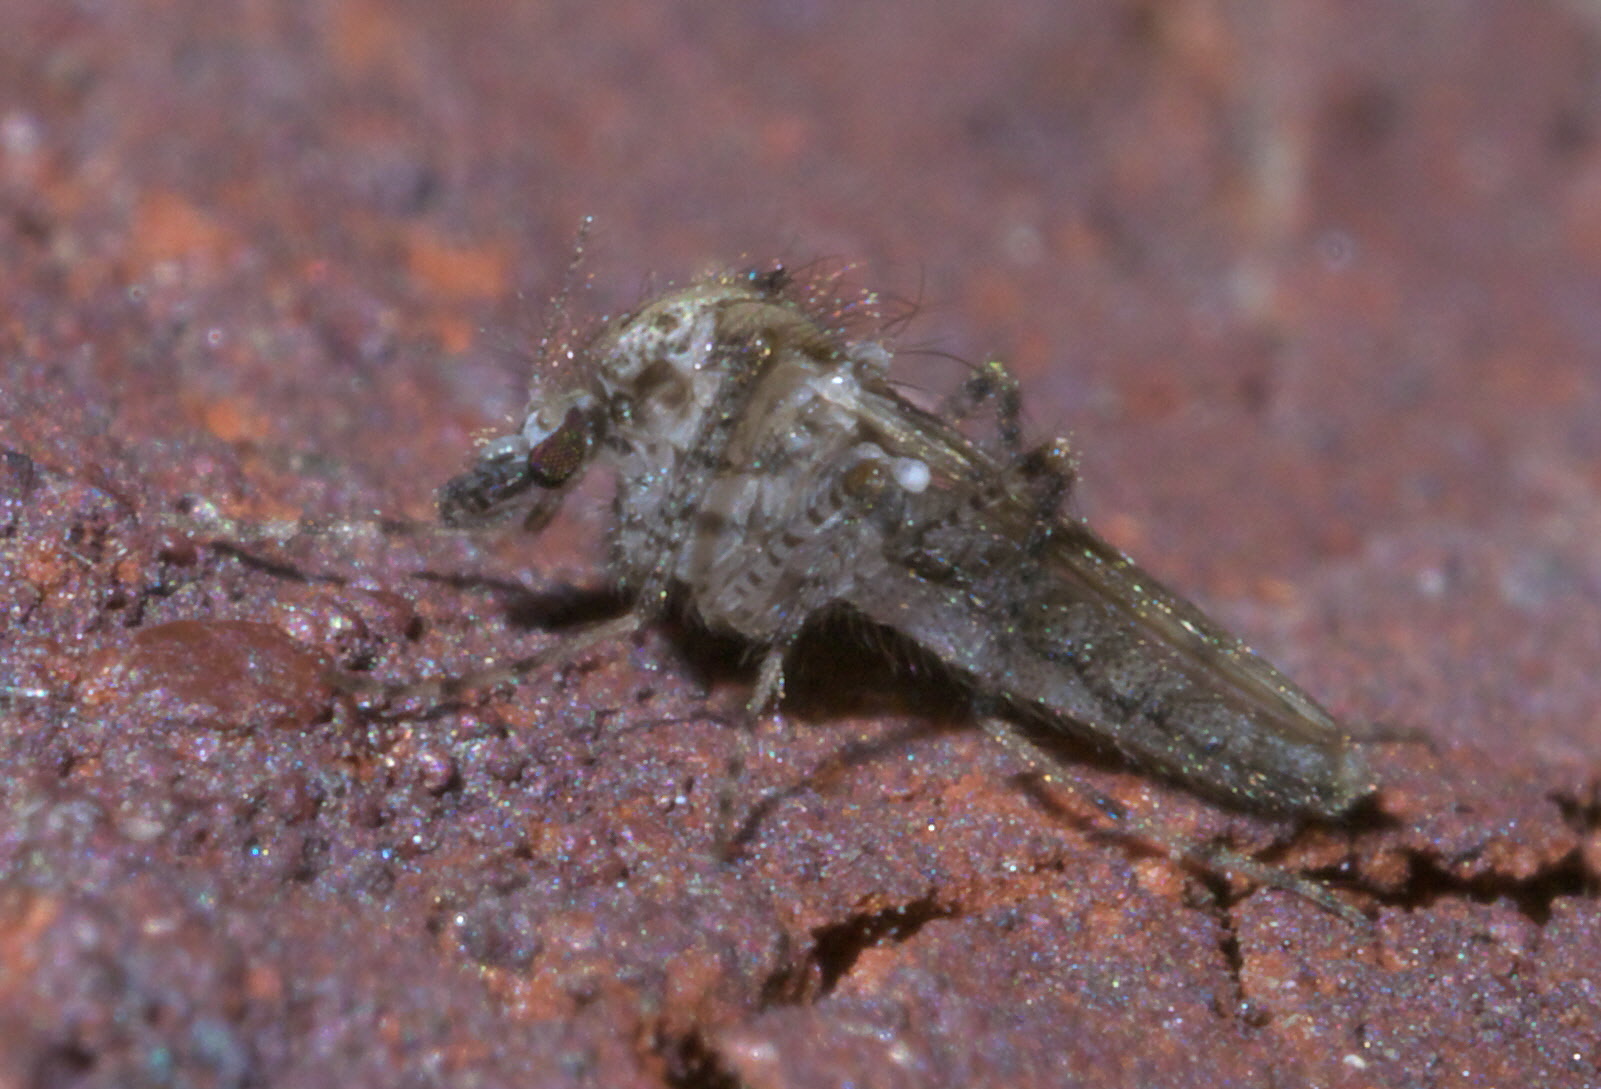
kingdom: Animalia
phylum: Arthropoda
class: Insecta
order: Diptera
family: Chaoboridae
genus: Chaoborus
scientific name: Chaoborus punctipennis
